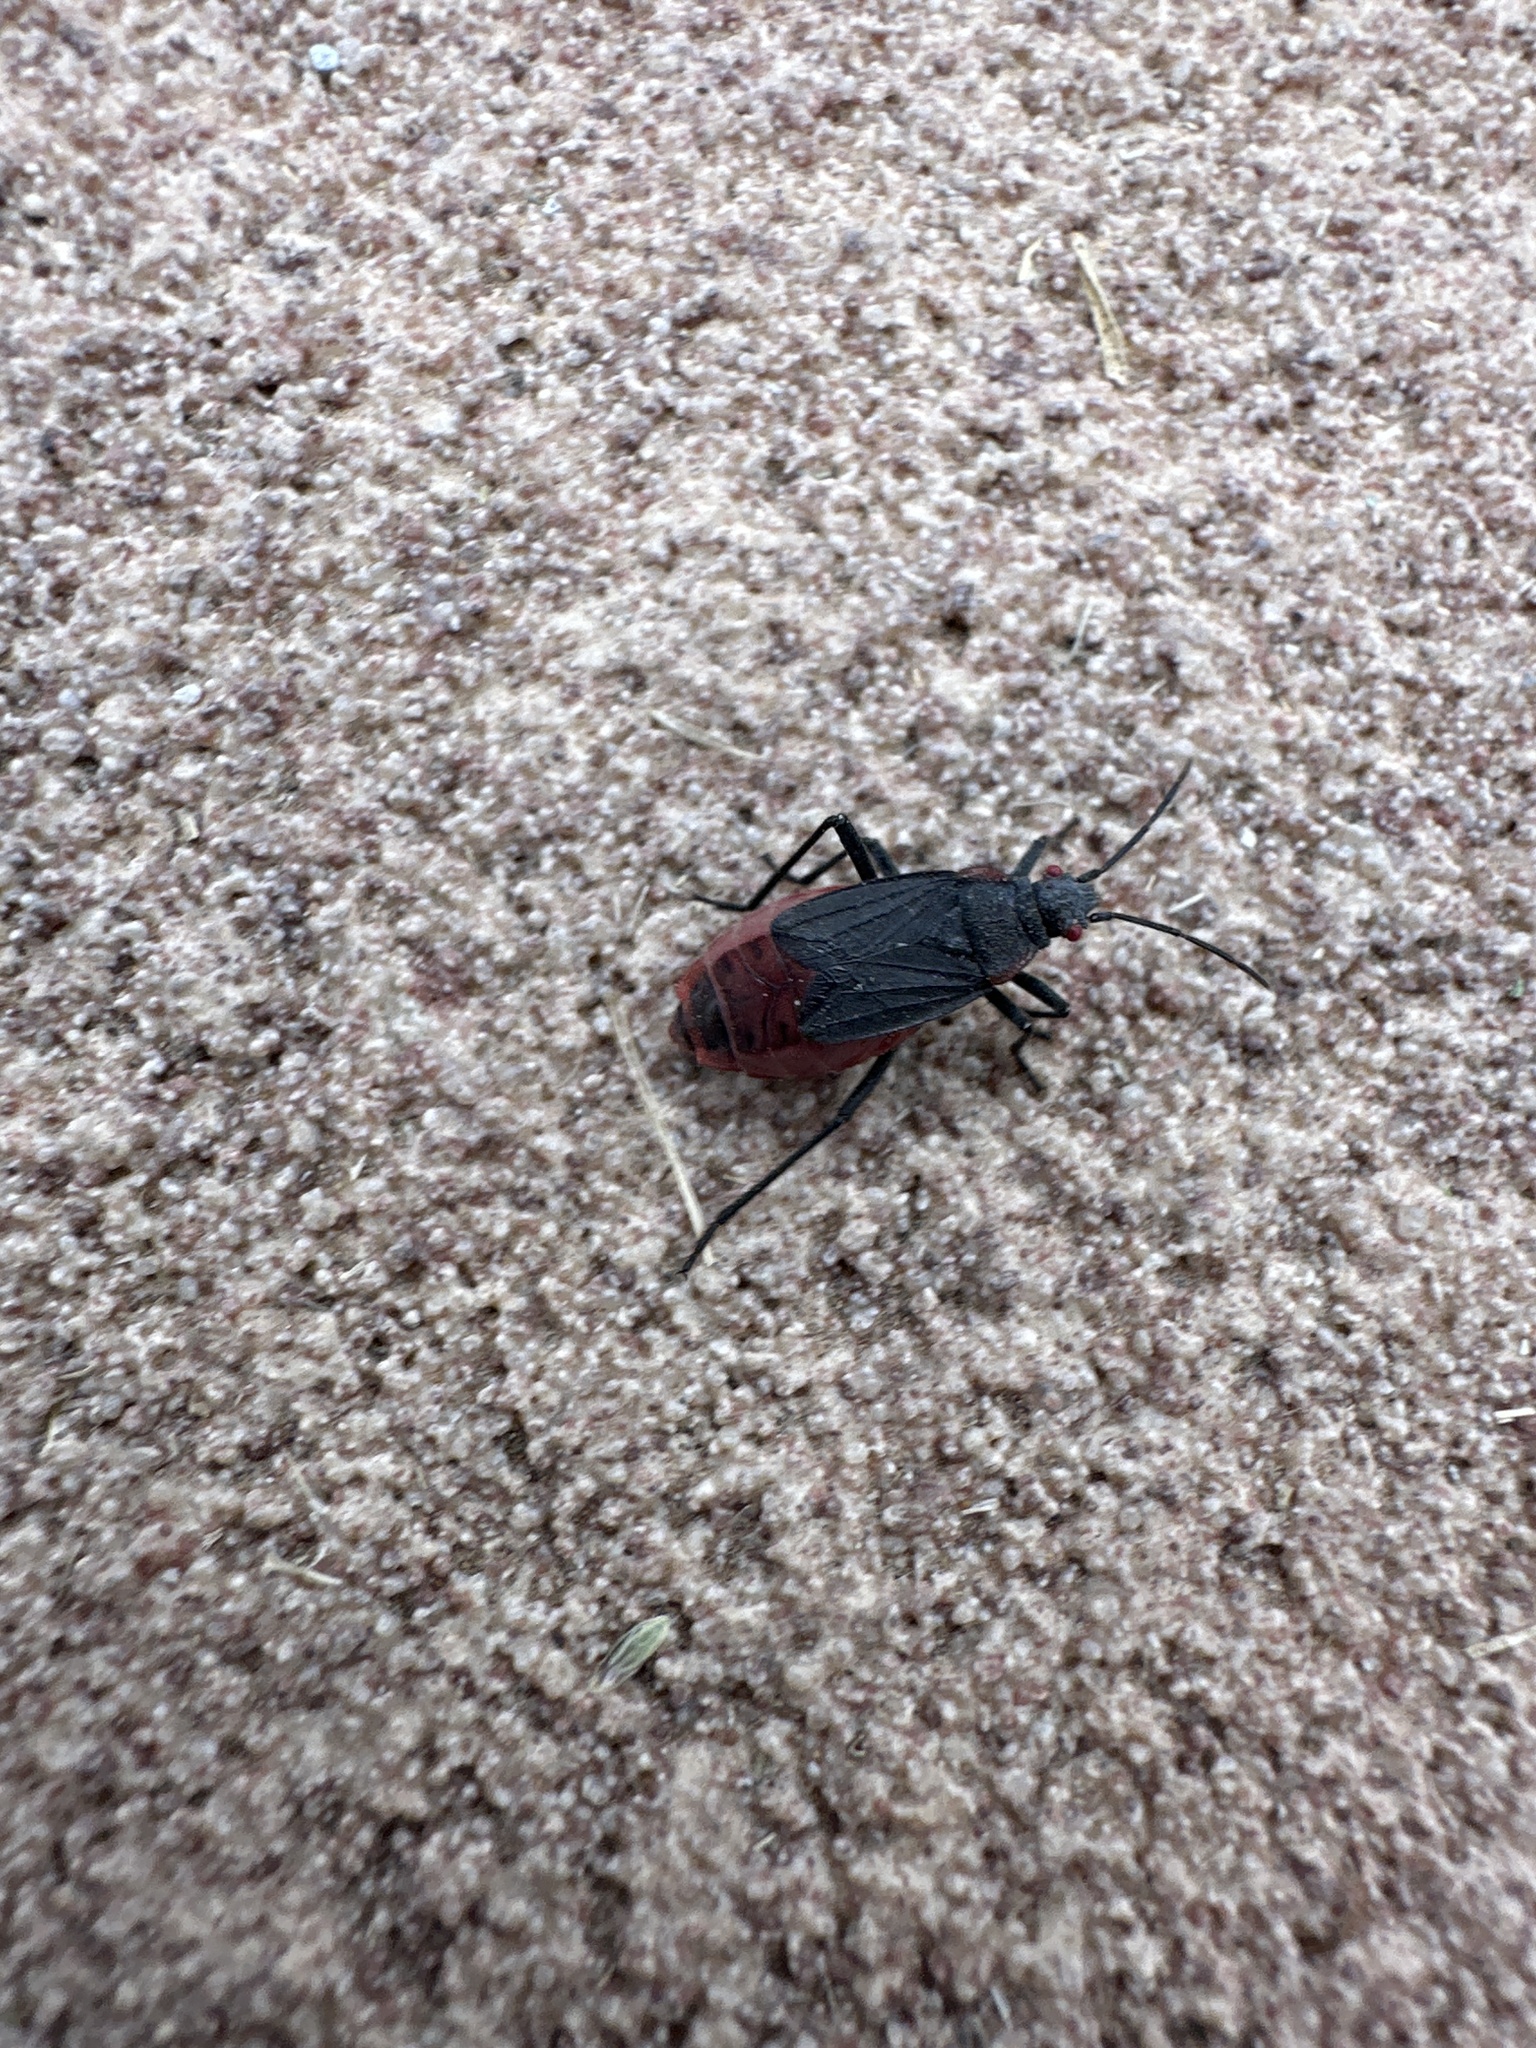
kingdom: Animalia
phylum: Arthropoda
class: Insecta
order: Hemiptera
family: Rhopalidae
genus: Jadera
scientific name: Jadera haematoloma
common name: Red-shouldered bug
